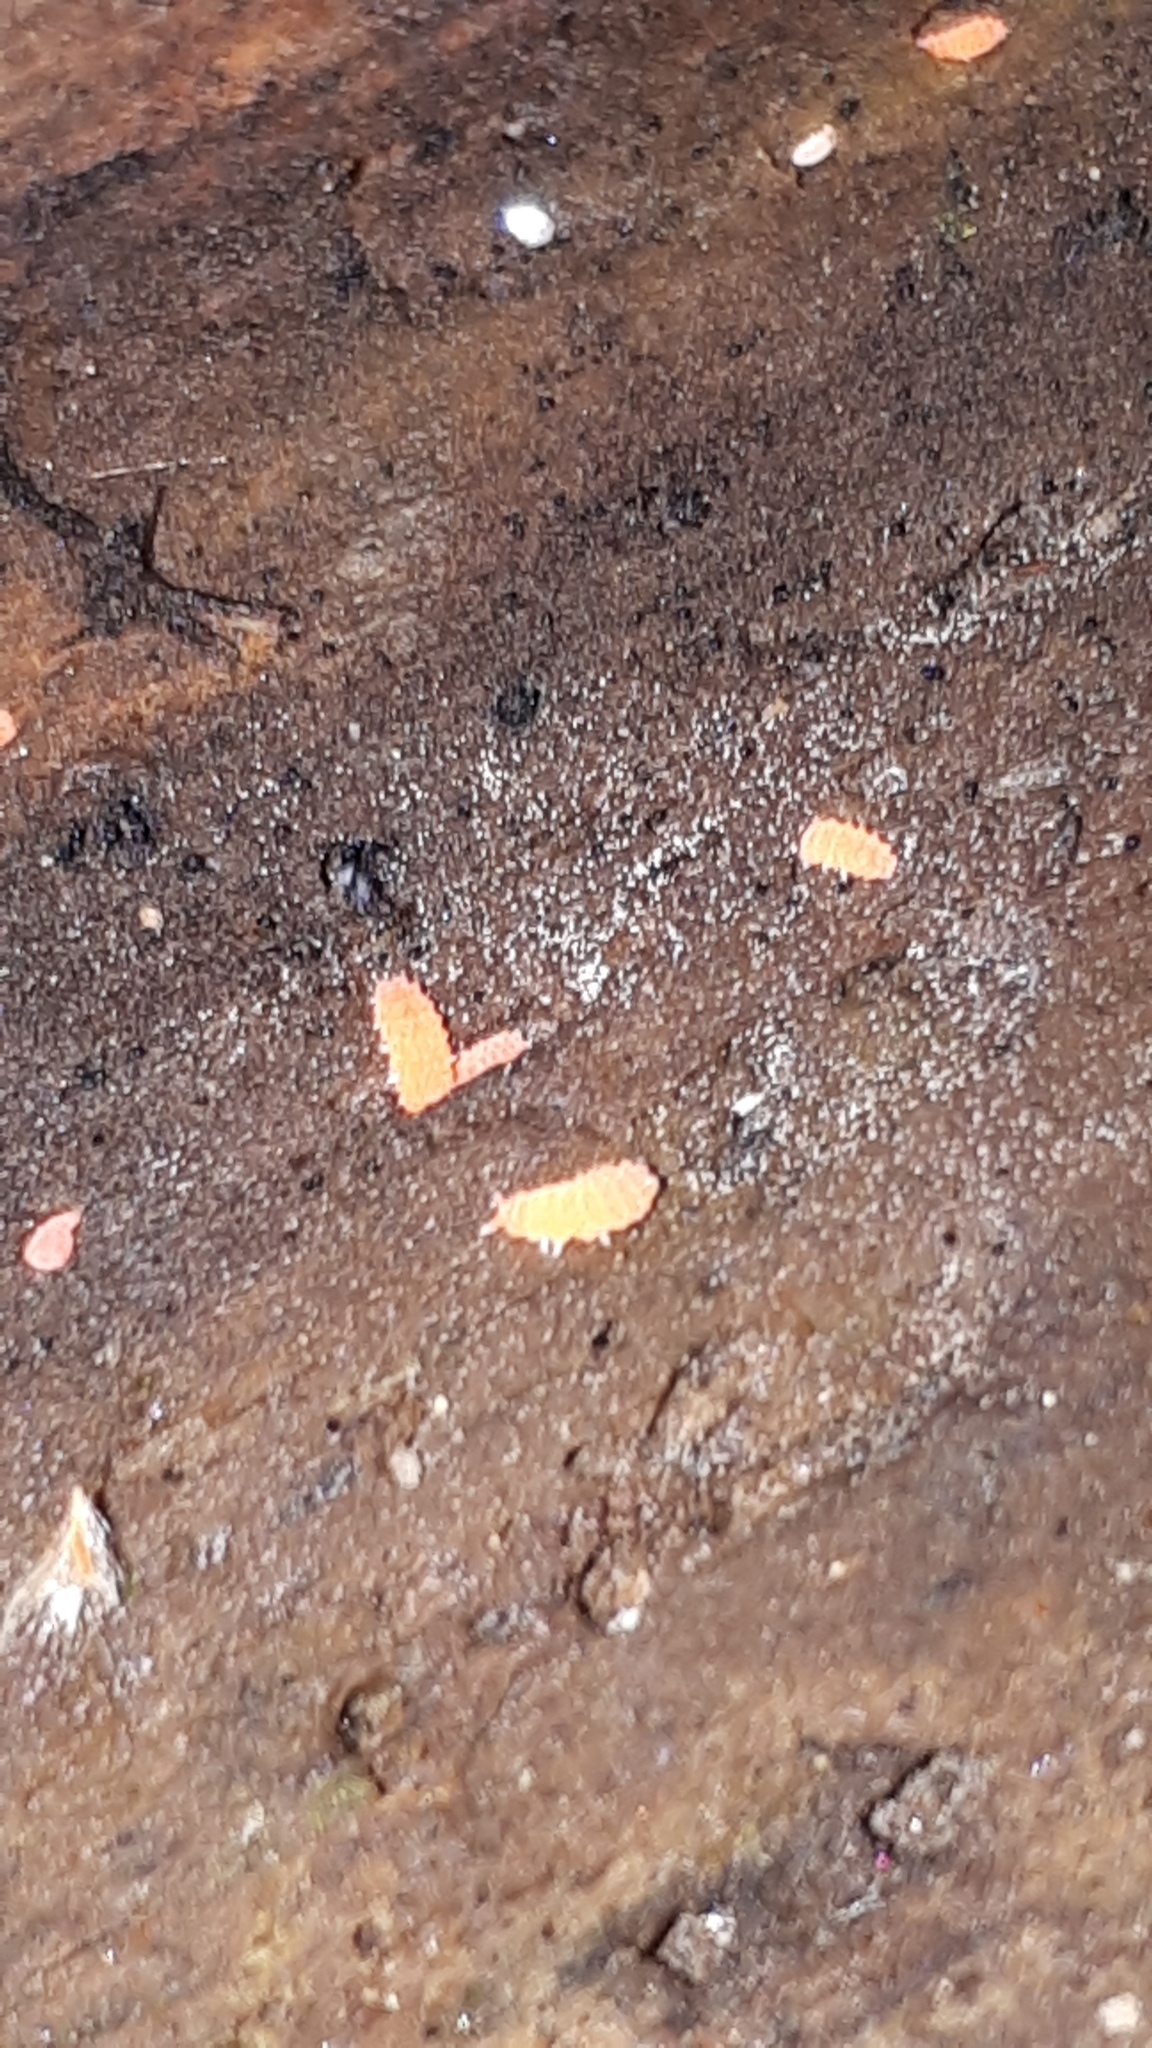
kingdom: Animalia
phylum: Arthropoda
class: Collembola
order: Poduromorpha
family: Neanuridae
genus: Bilobella
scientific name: Bilobella braunerae
